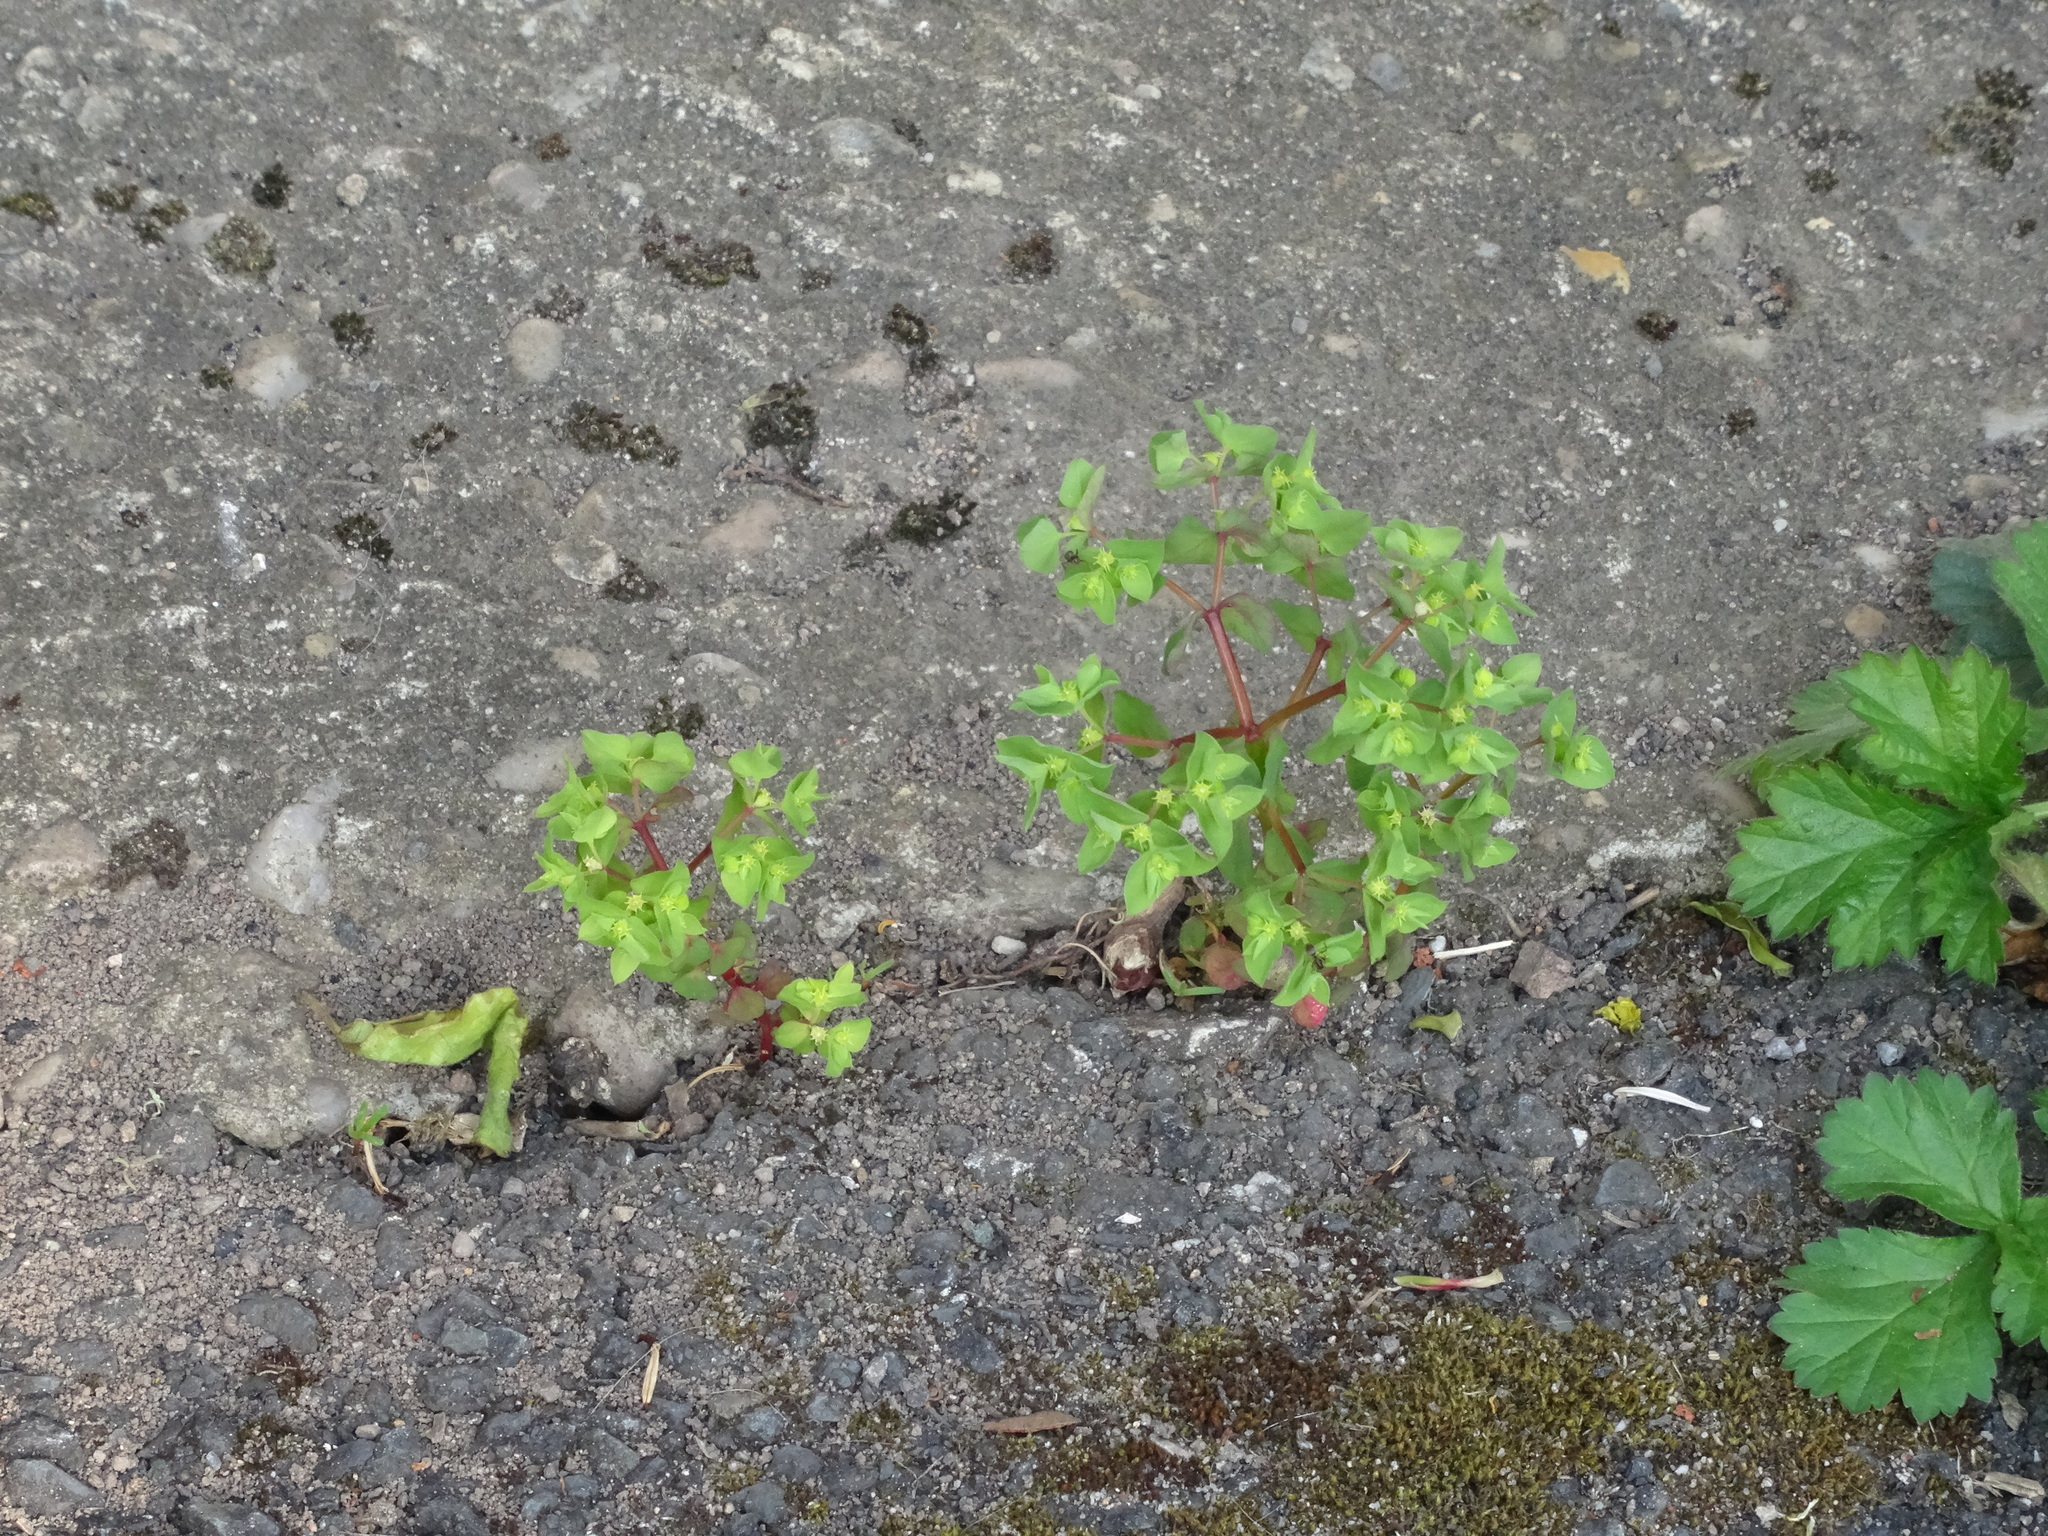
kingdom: Plantae
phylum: Tracheophyta
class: Magnoliopsida
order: Malpighiales
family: Euphorbiaceae
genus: Euphorbia
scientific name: Euphorbia peplus
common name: Petty spurge
